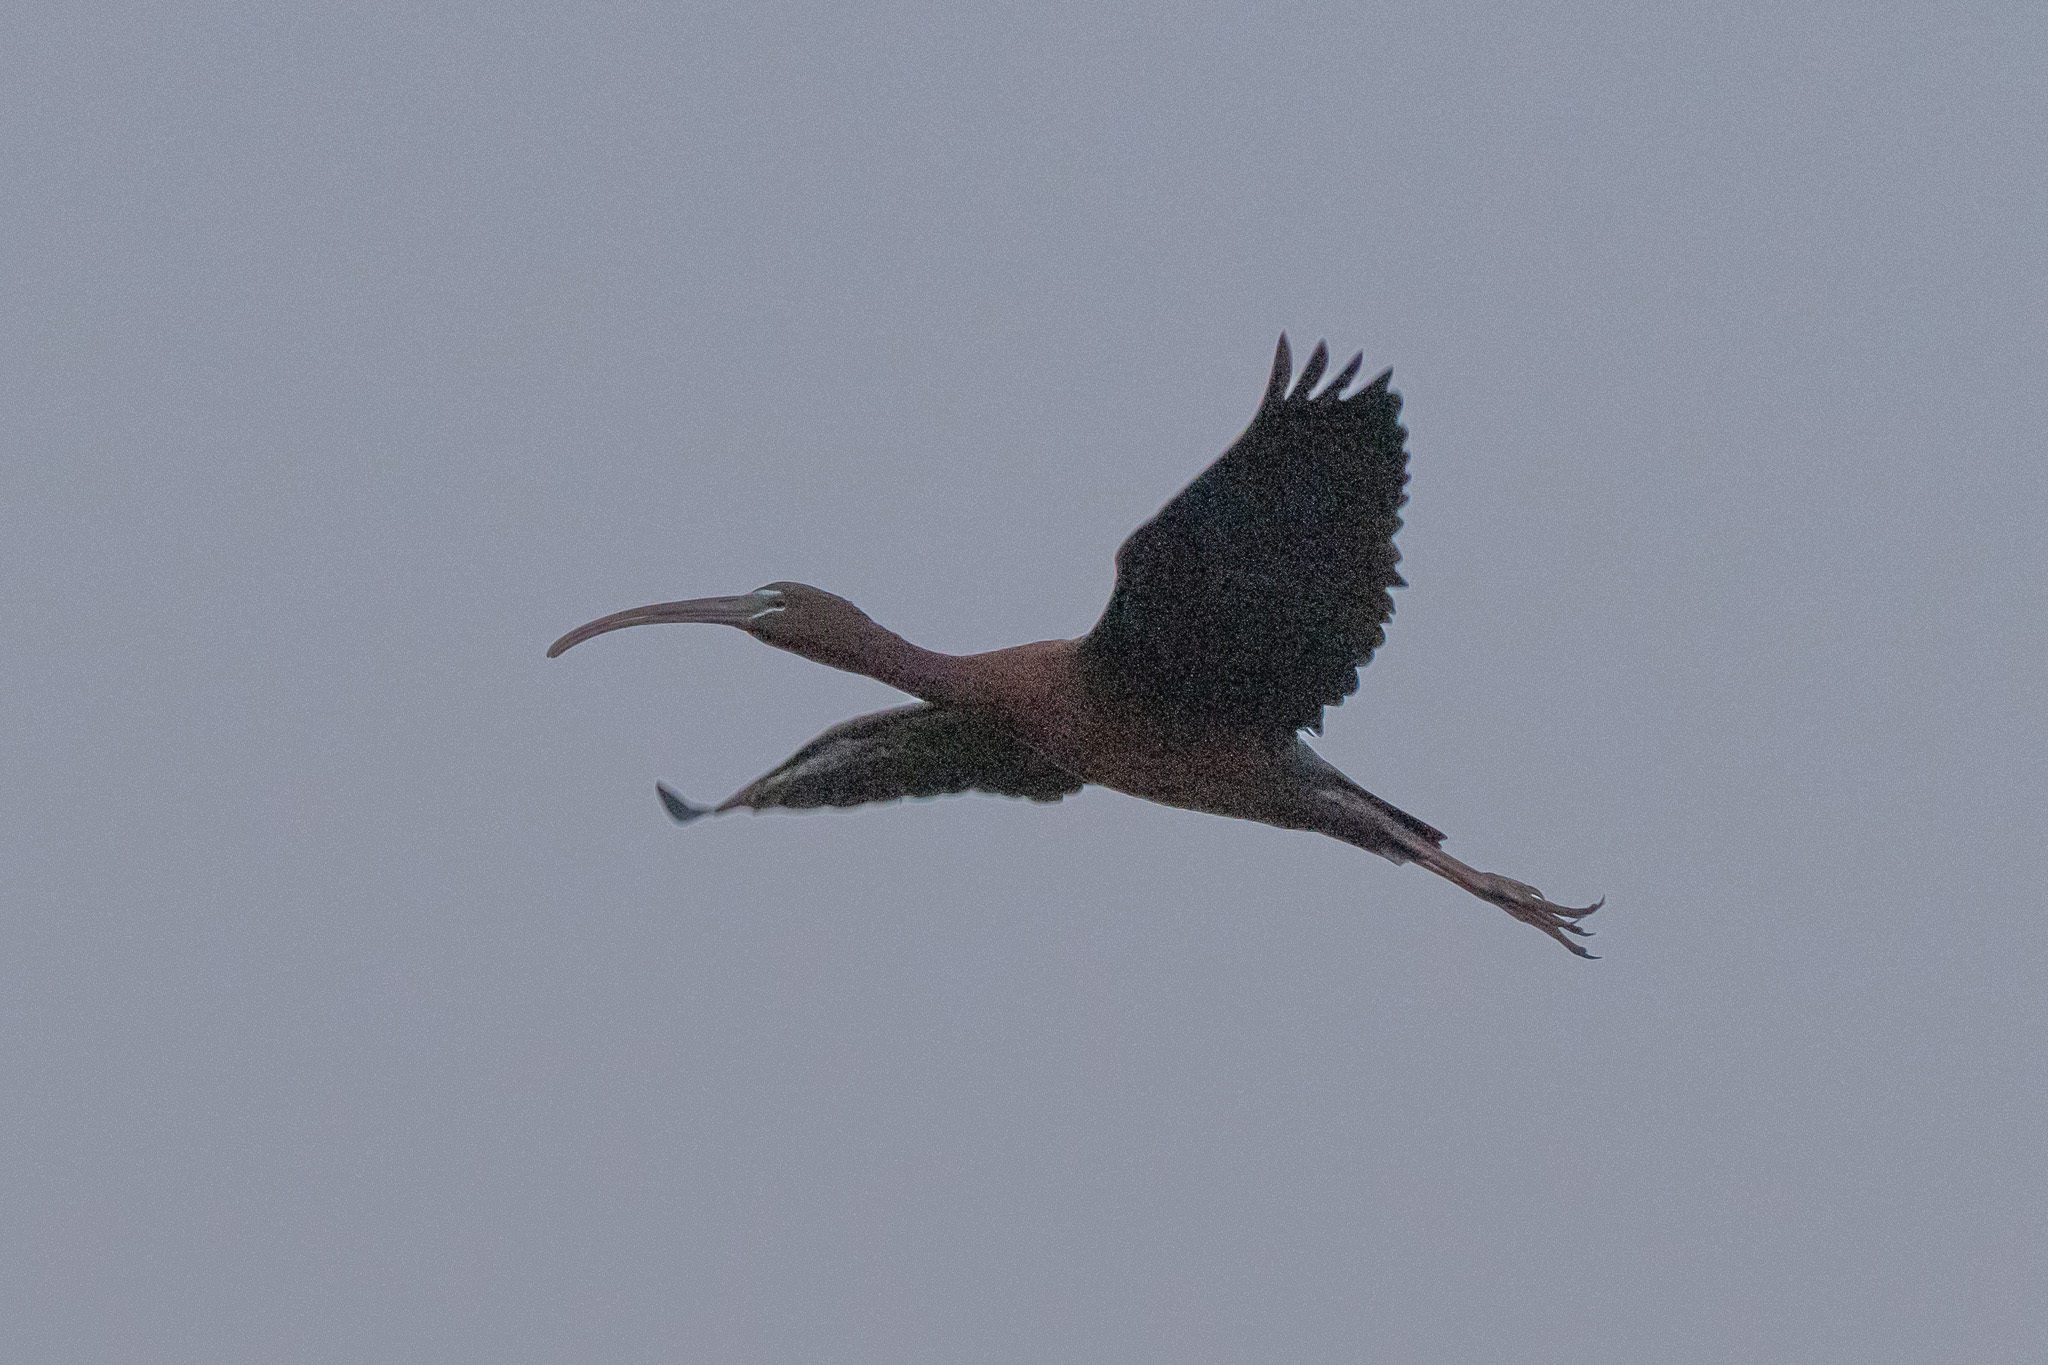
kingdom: Animalia
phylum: Chordata
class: Aves
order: Pelecaniformes
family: Threskiornithidae
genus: Plegadis
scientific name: Plegadis falcinellus
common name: Glossy ibis
